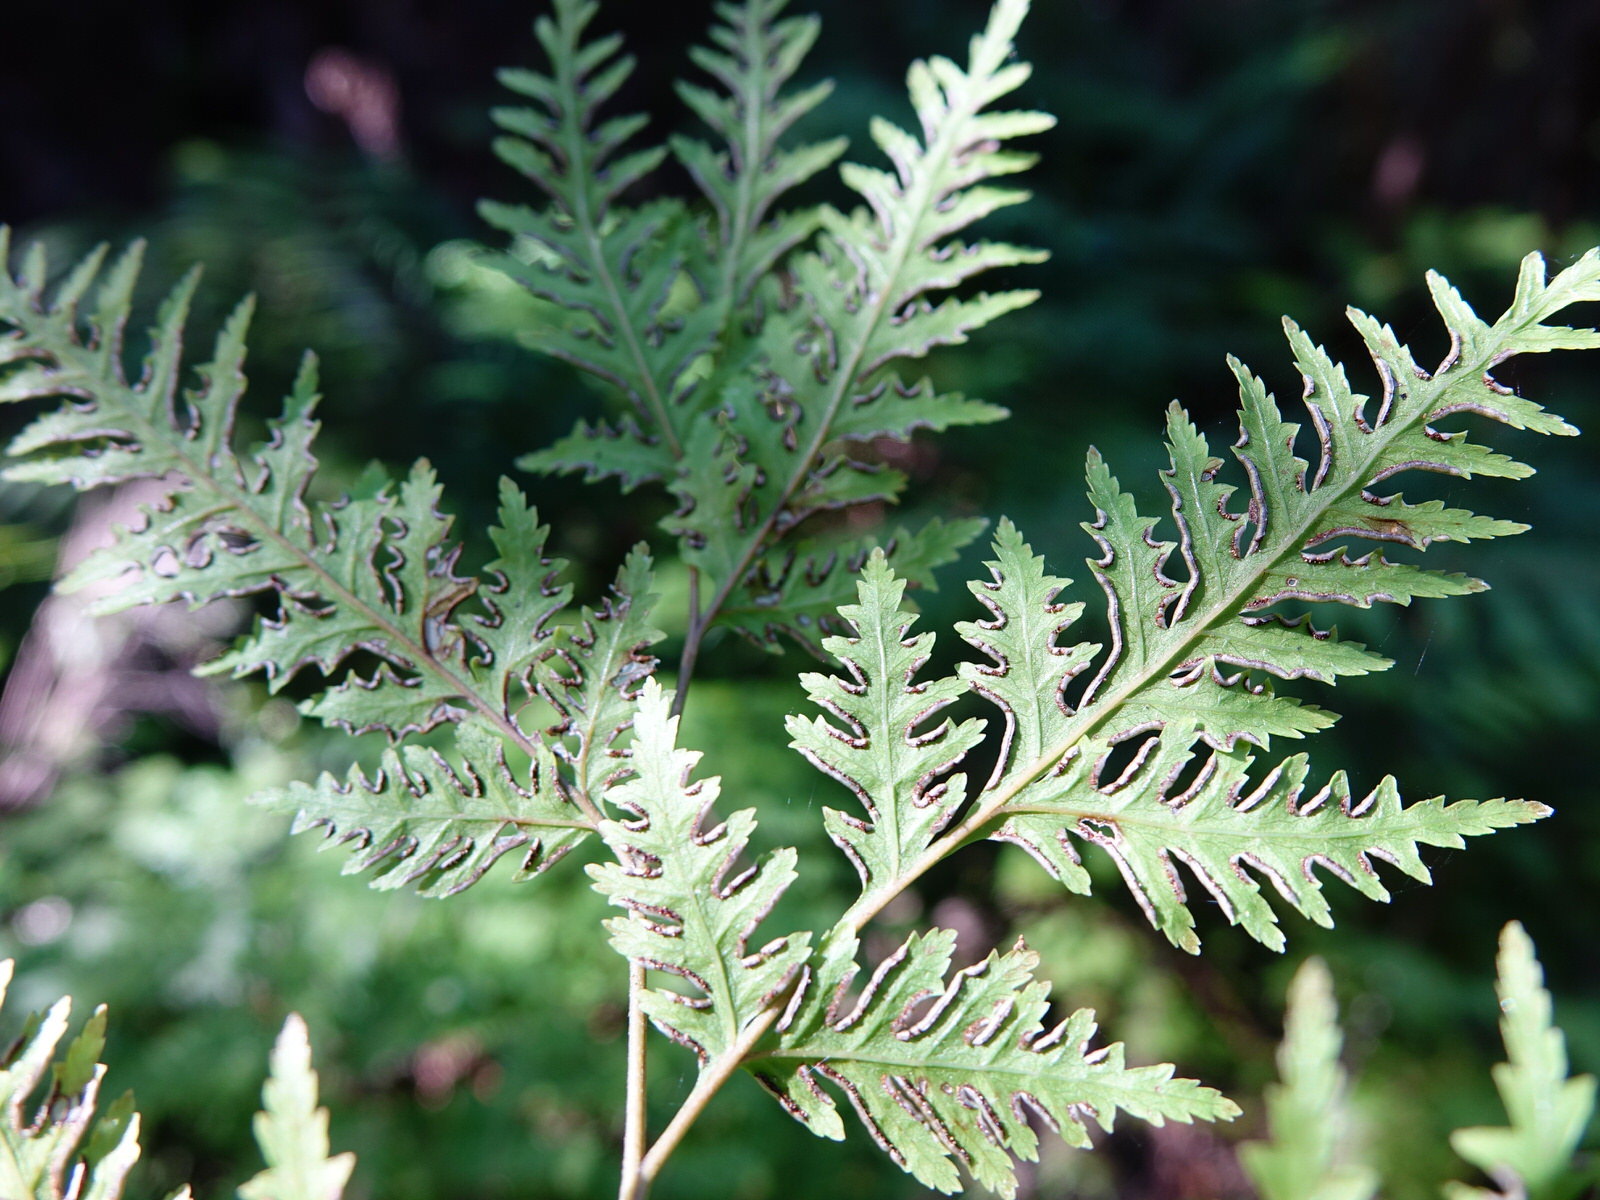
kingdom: Plantae
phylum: Tracheophyta
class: Polypodiopsida
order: Polypodiales
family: Pteridaceae
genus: Pteris
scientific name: Pteris macilenta
